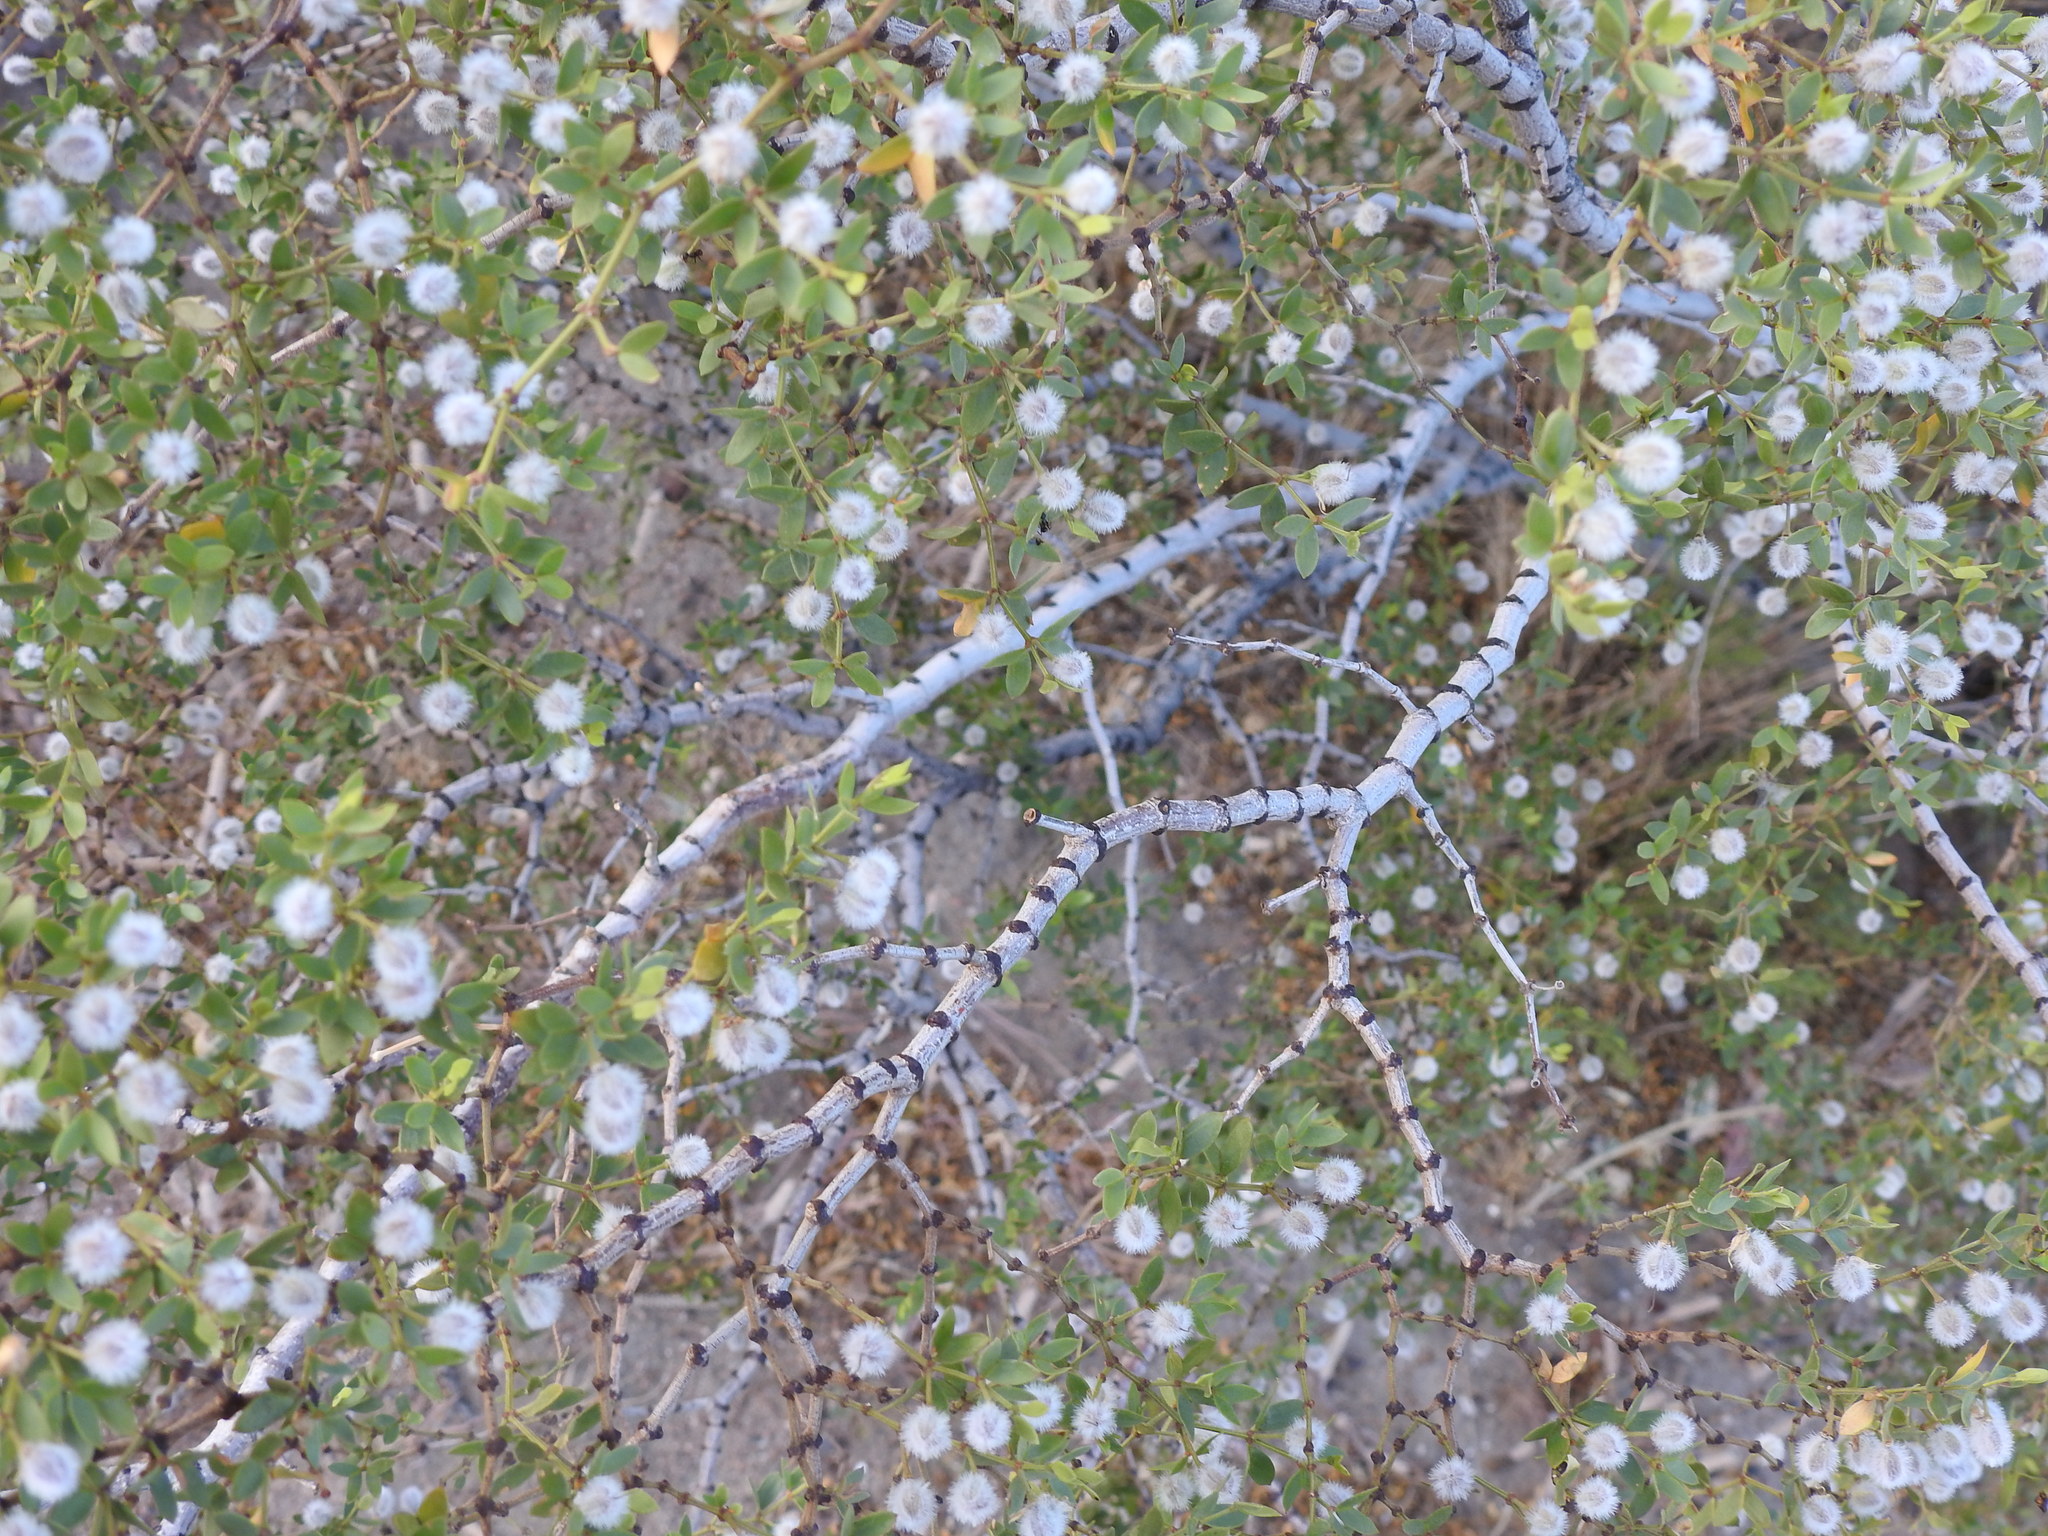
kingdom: Plantae
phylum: Tracheophyta
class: Magnoliopsida
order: Zygophyllales
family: Zygophyllaceae
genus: Larrea
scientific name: Larrea divaricata
